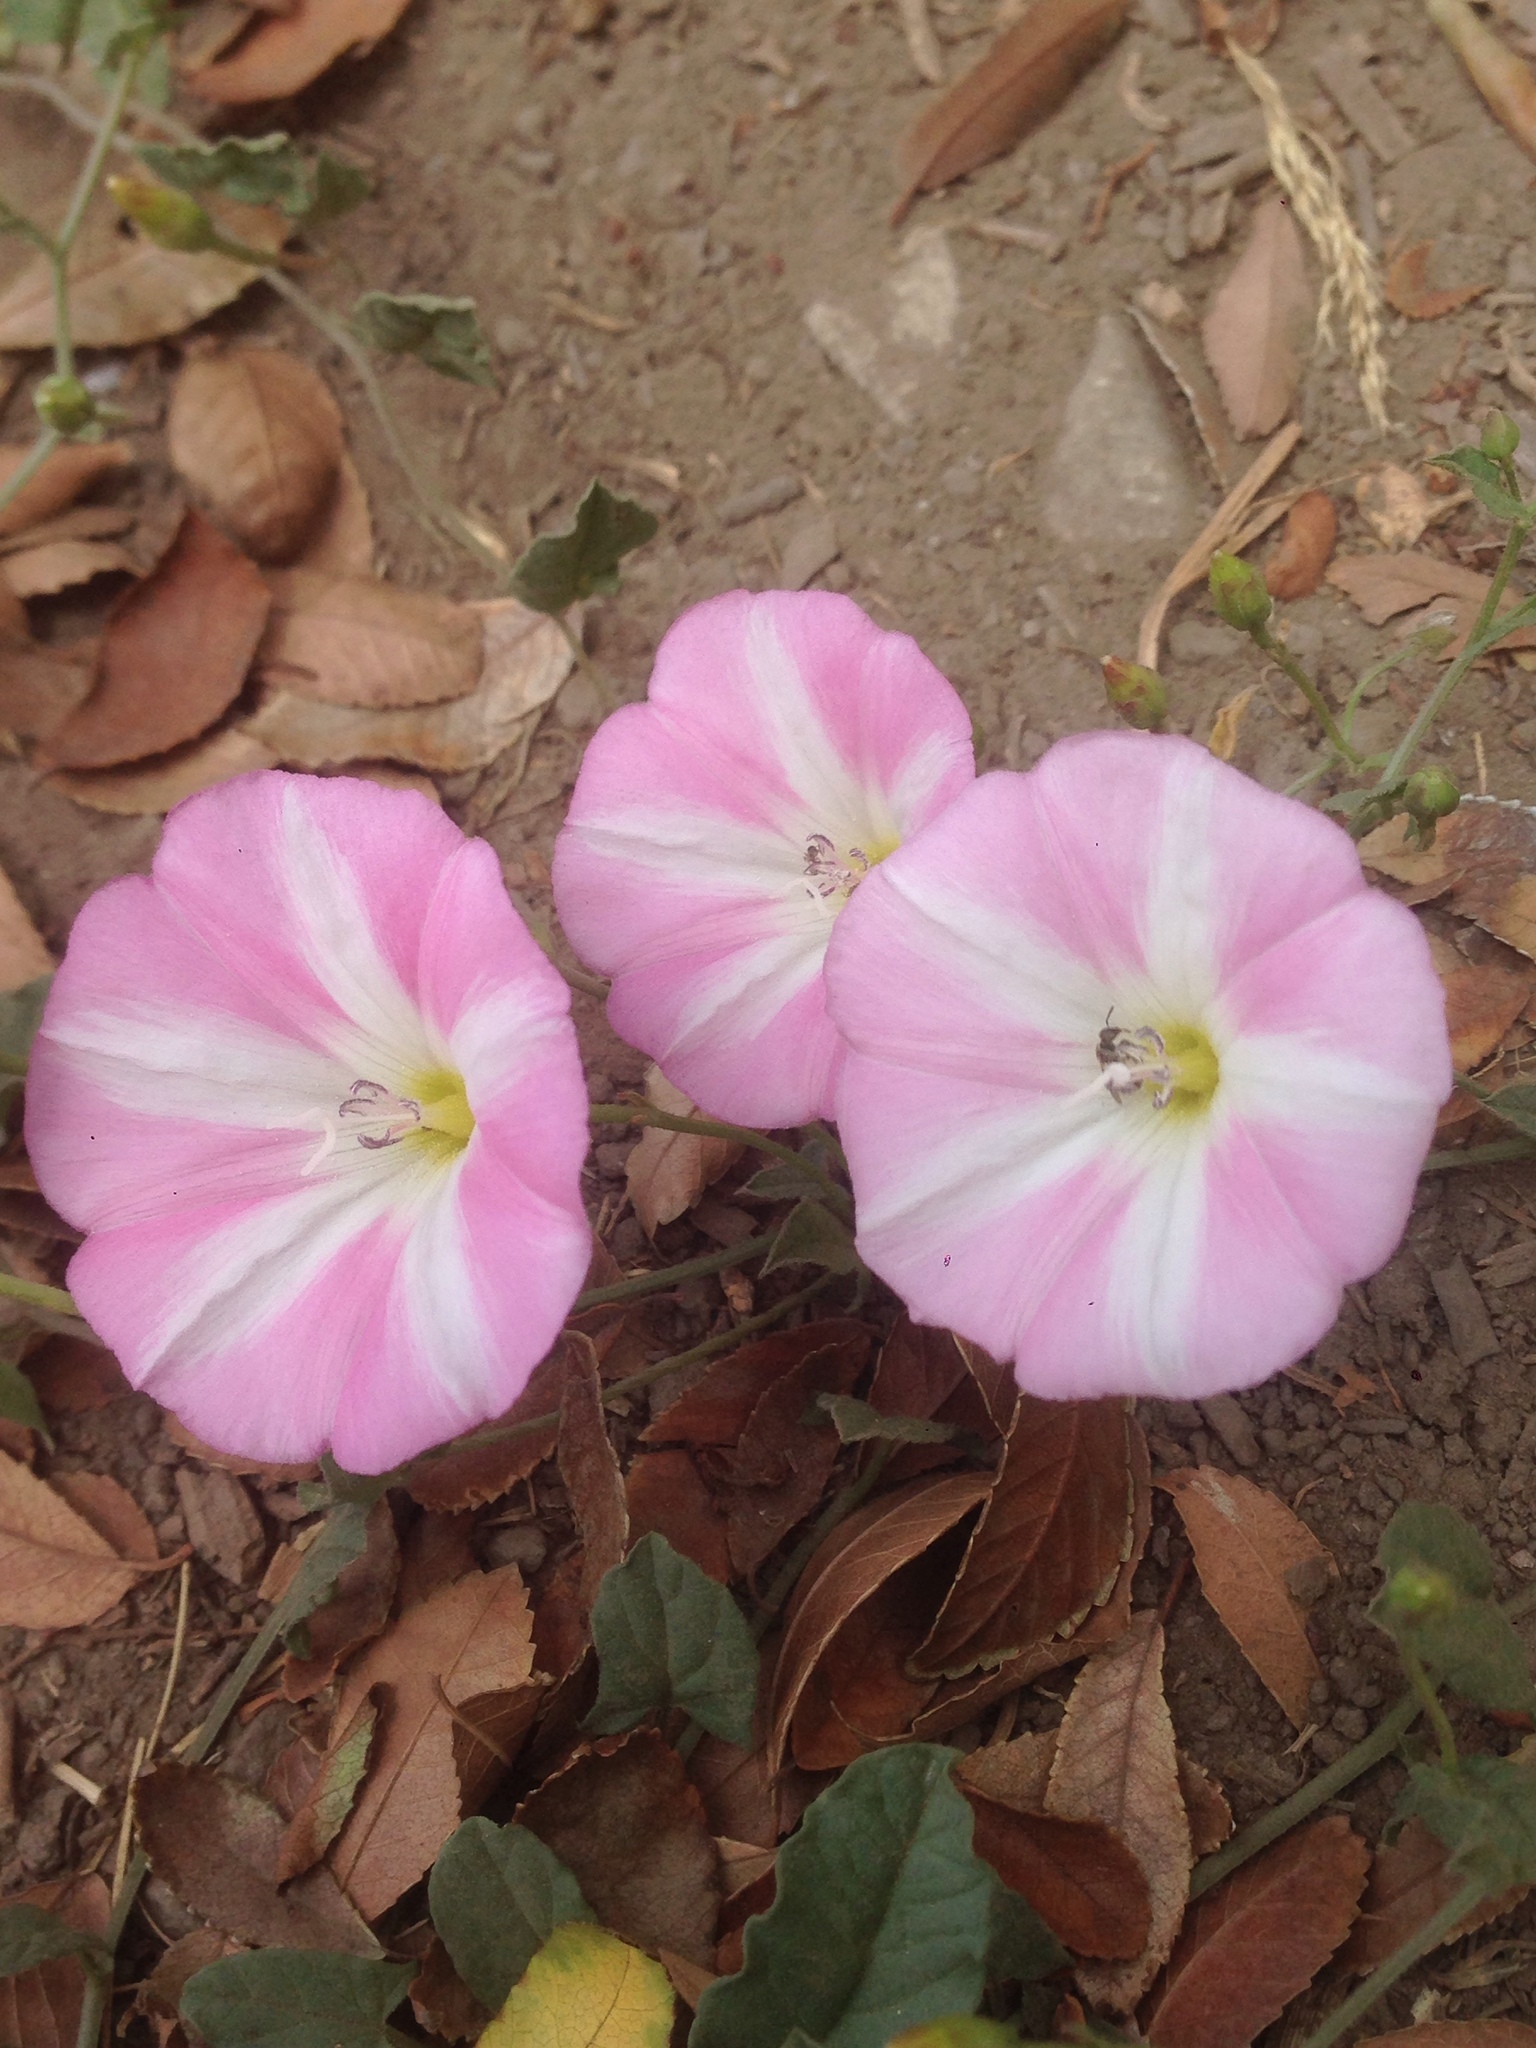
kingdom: Plantae
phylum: Tracheophyta
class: Magnoliopsida
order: Solanales
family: Convolvulaceae
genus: Convolvulus
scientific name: Convolvulus arvensis
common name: Field bindweed
